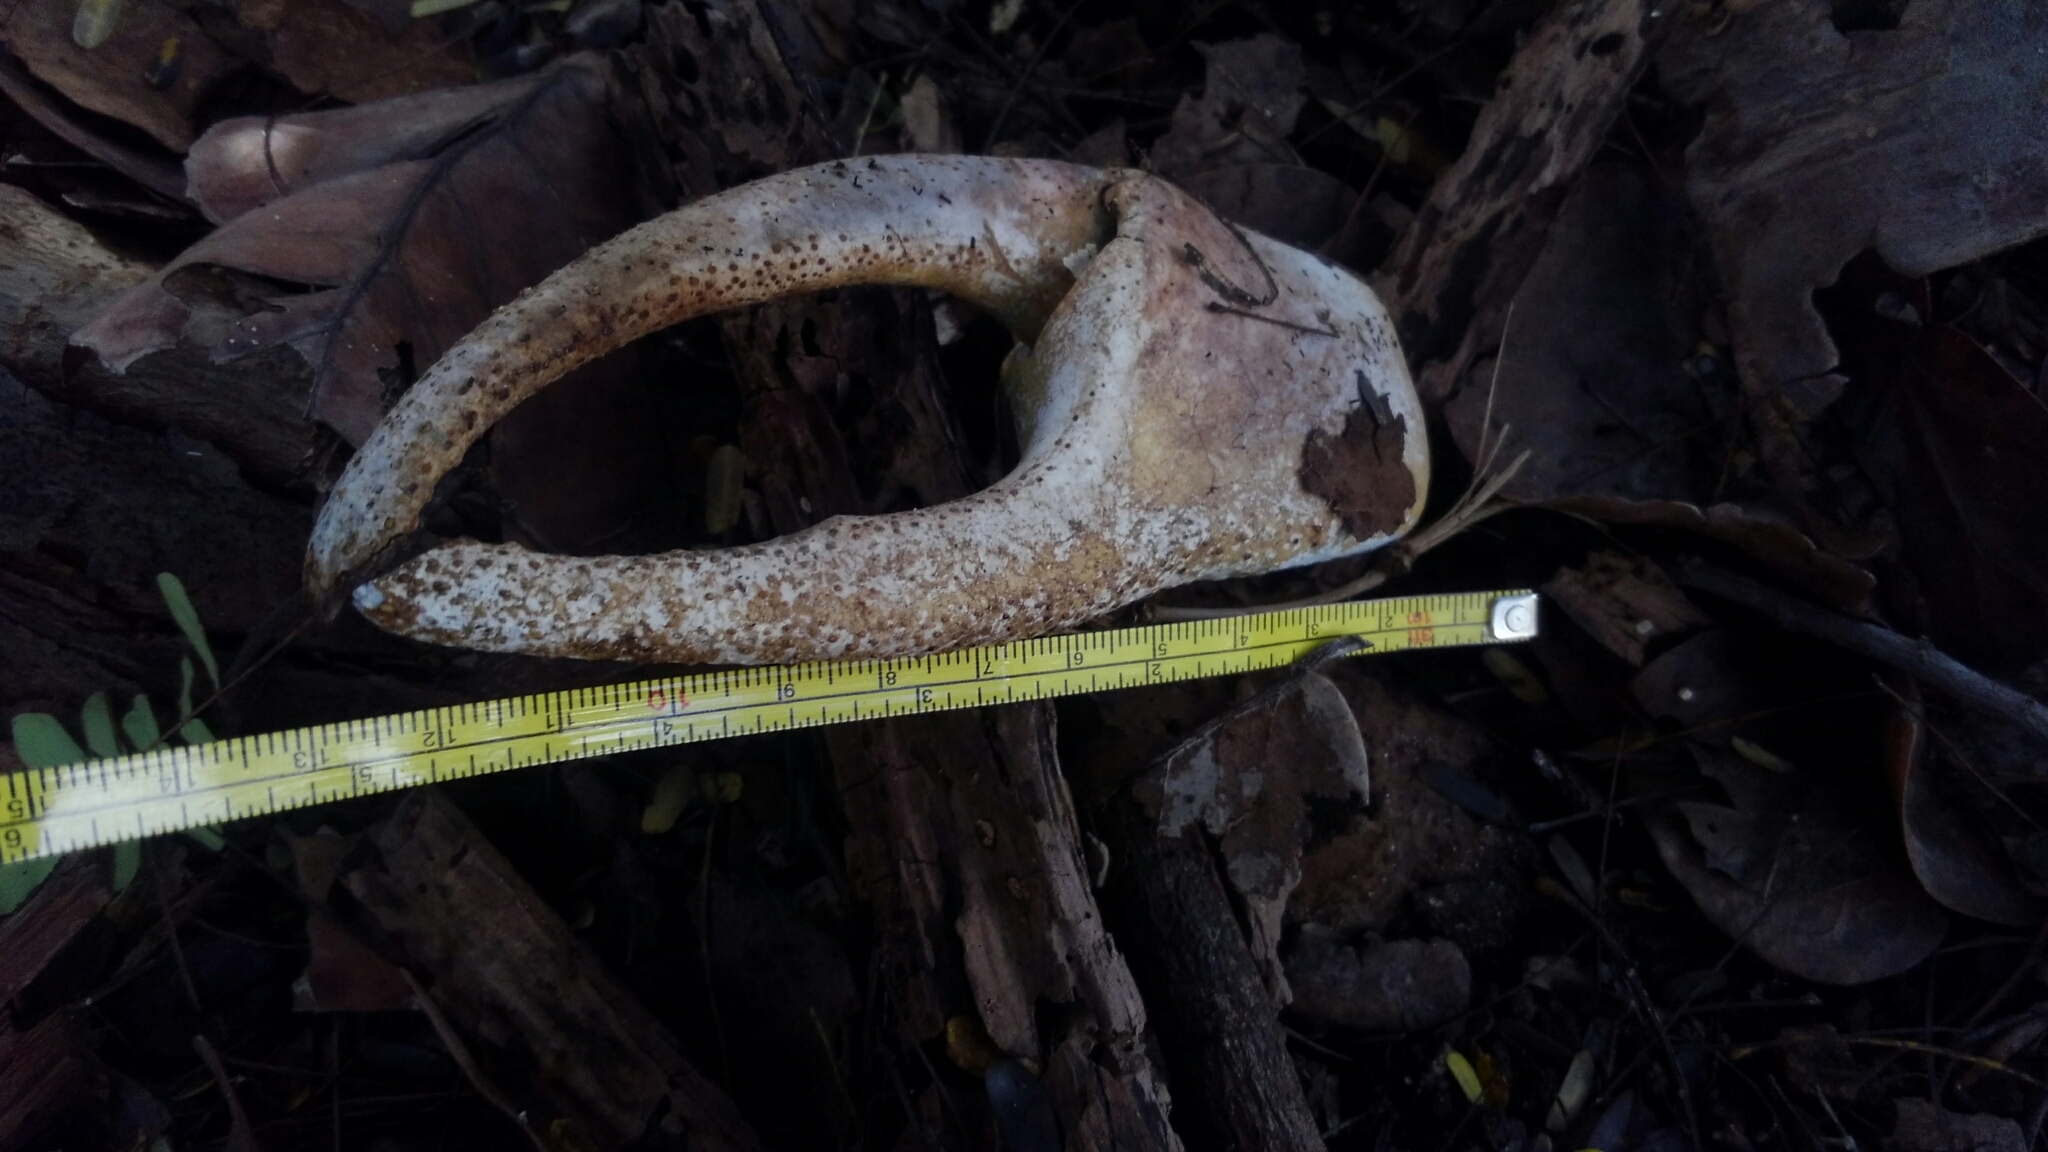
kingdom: Animalia
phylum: Arthropoda
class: Malacostraca
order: Decapoda
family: Gecarcinidae
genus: Cardisoma
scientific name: Cardisoma guanhumi
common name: Great land crab
